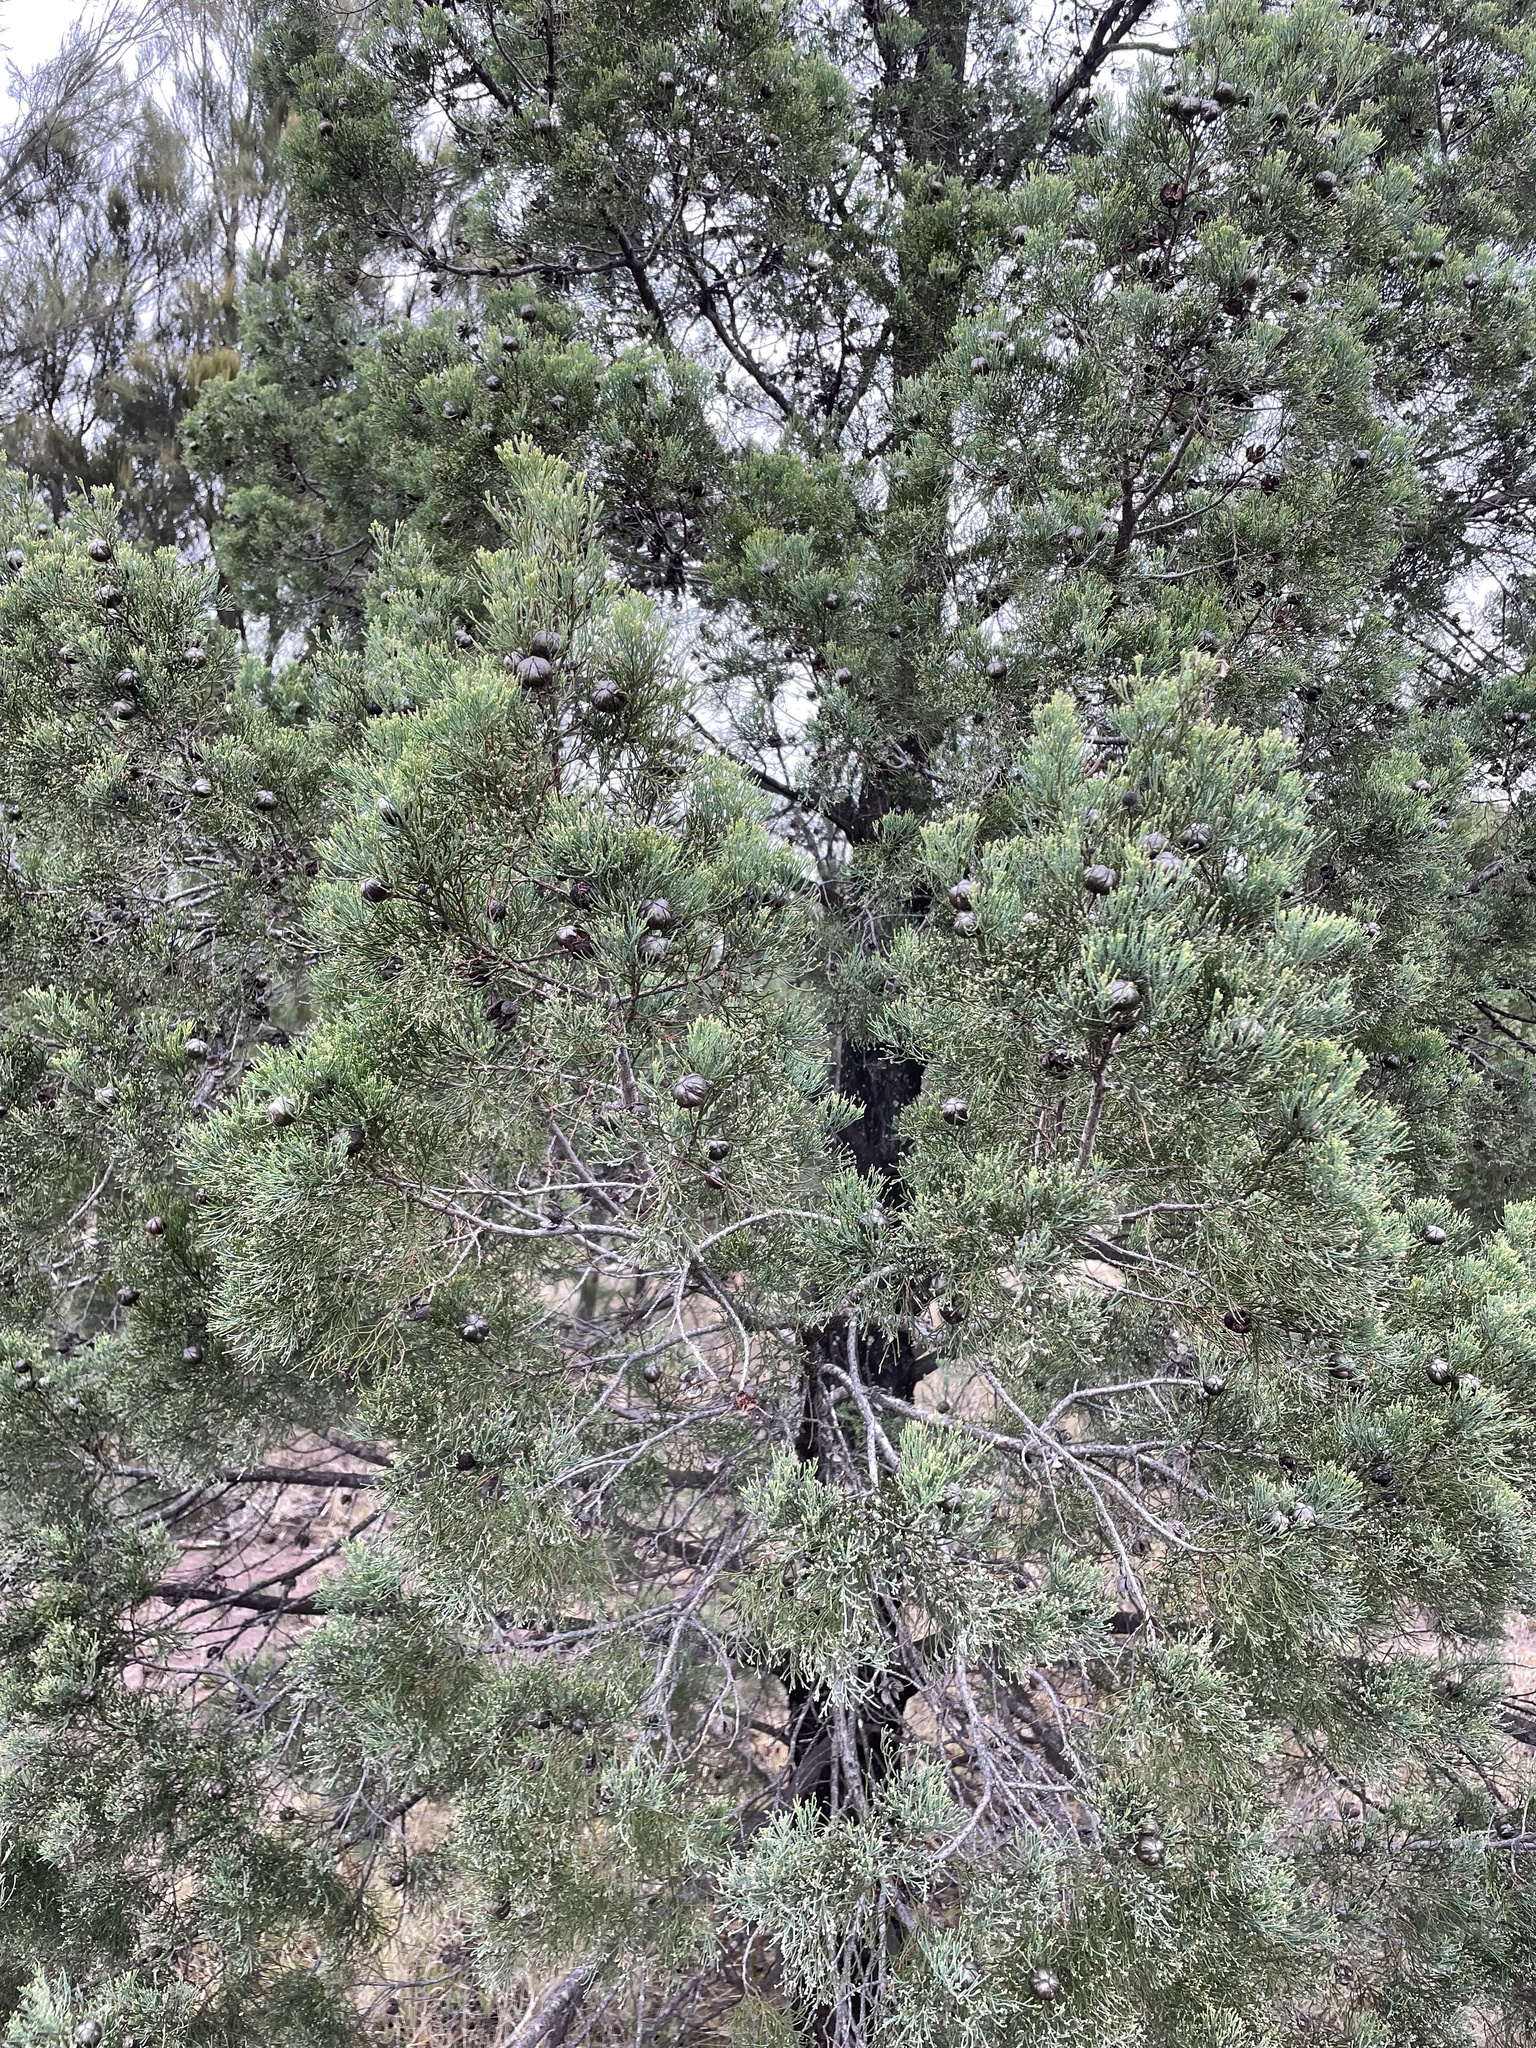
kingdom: Plantae
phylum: Tracheophyta
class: Pinopsida
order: Pinales
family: Cupressaceae
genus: Callitris
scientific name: Callitris columellaris
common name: White cypress-pine
